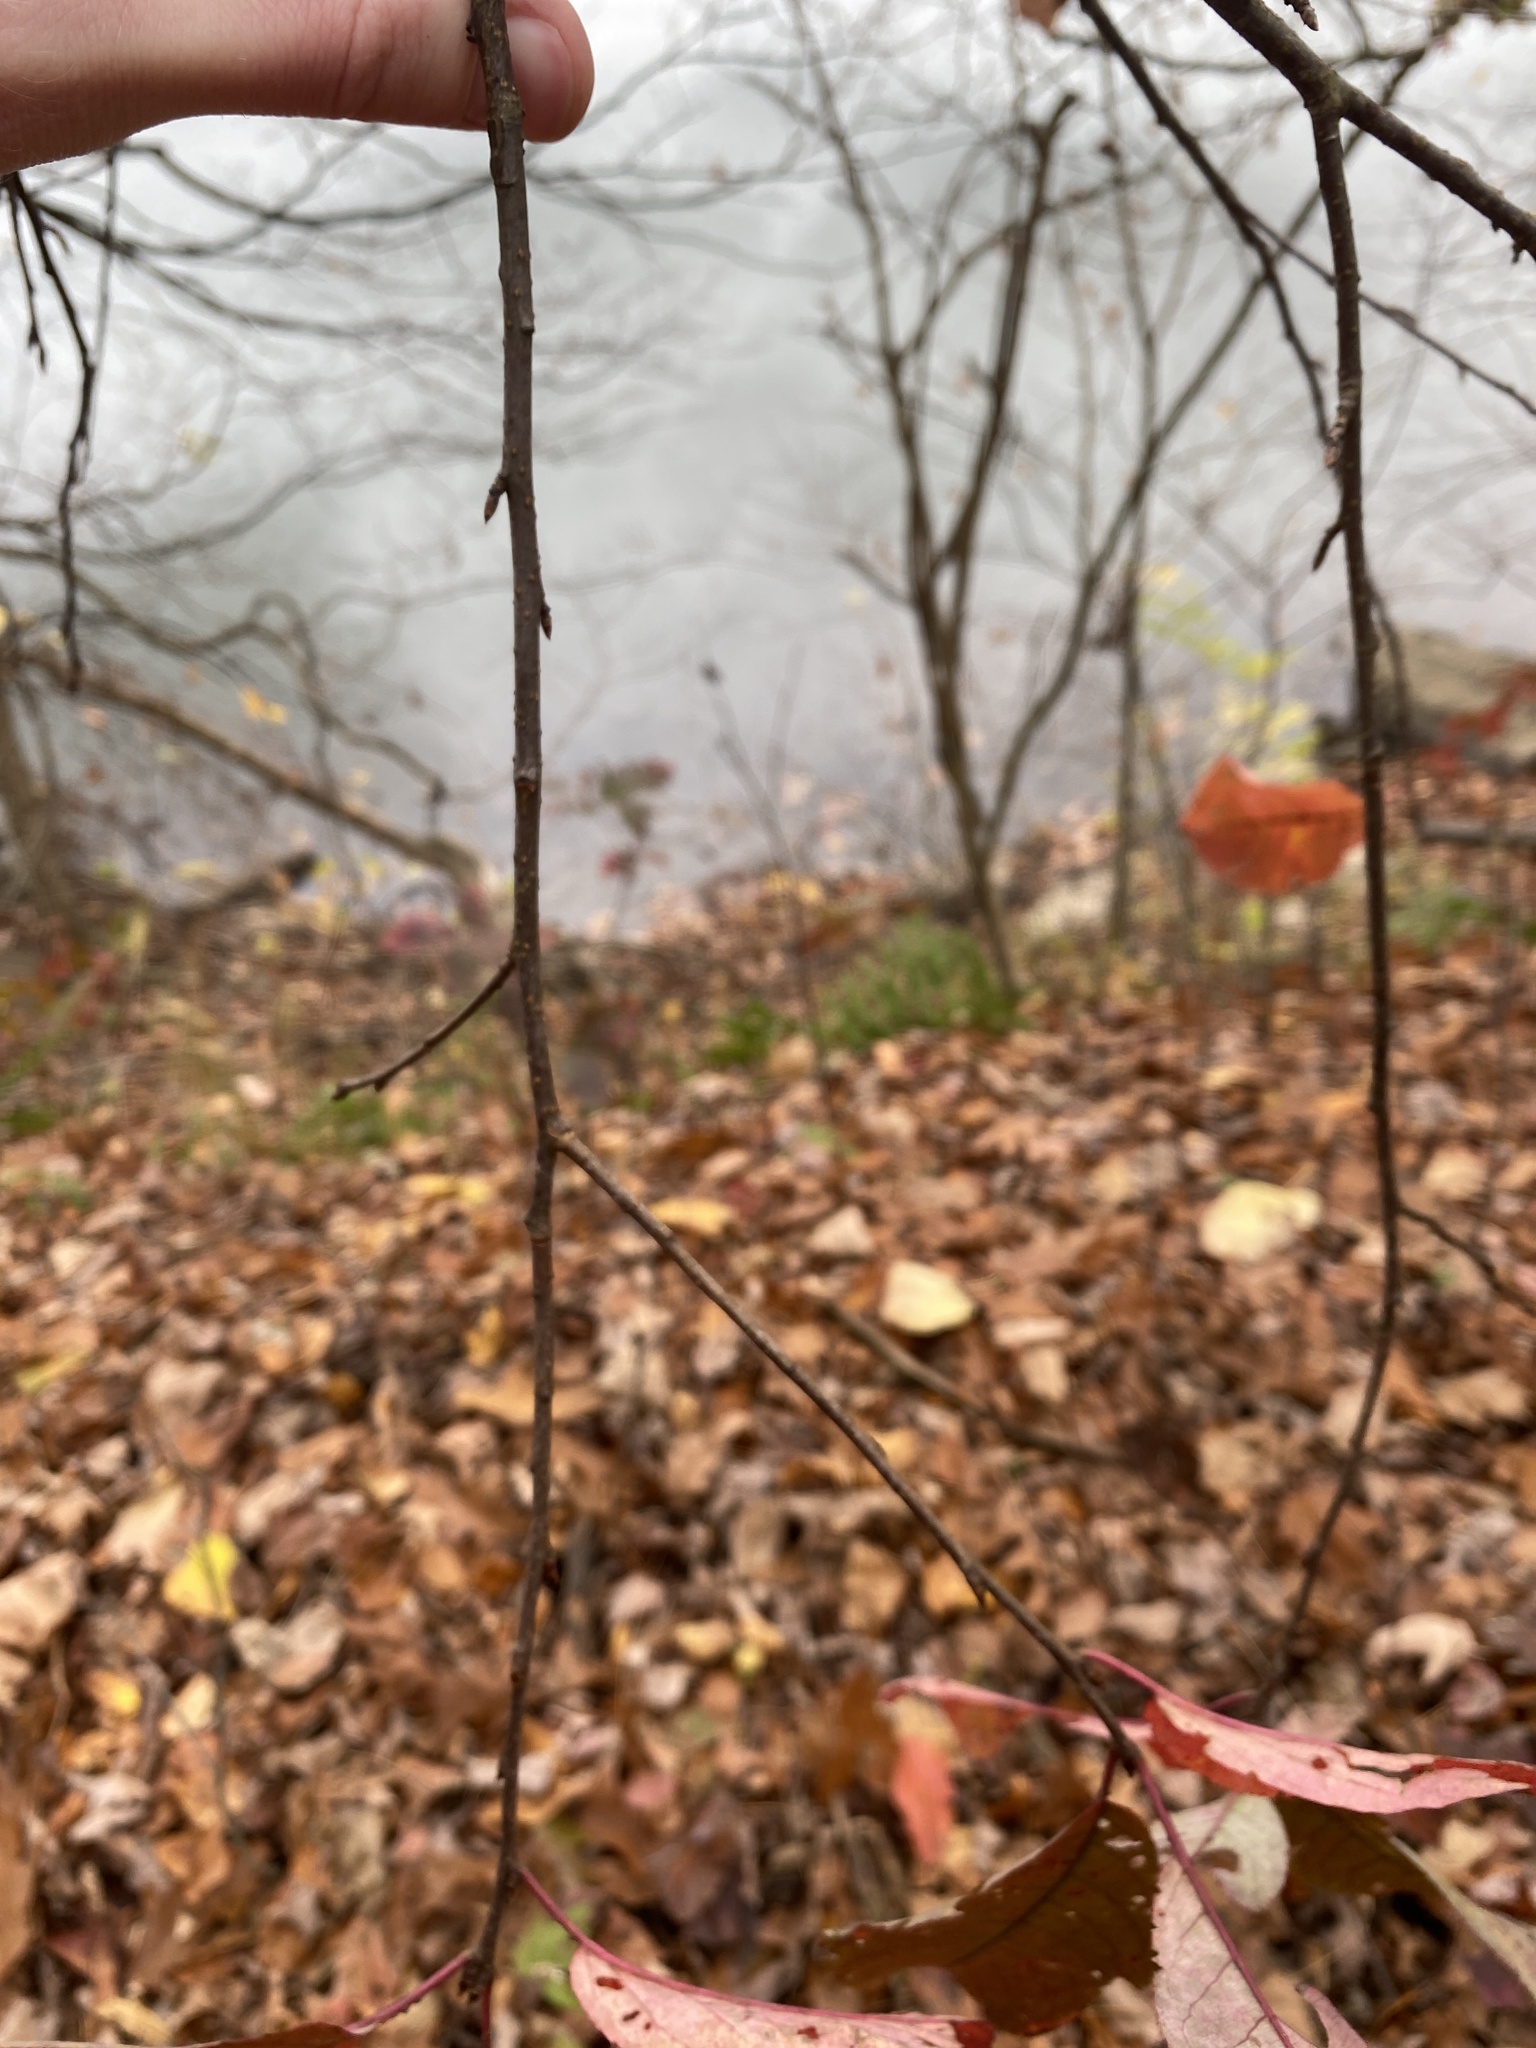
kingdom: Plantae
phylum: Tracheophyta
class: Magnoliopsida
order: Rosales
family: Rosaceae
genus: Prunus
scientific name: Prunus virginiana
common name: Chokecherry
